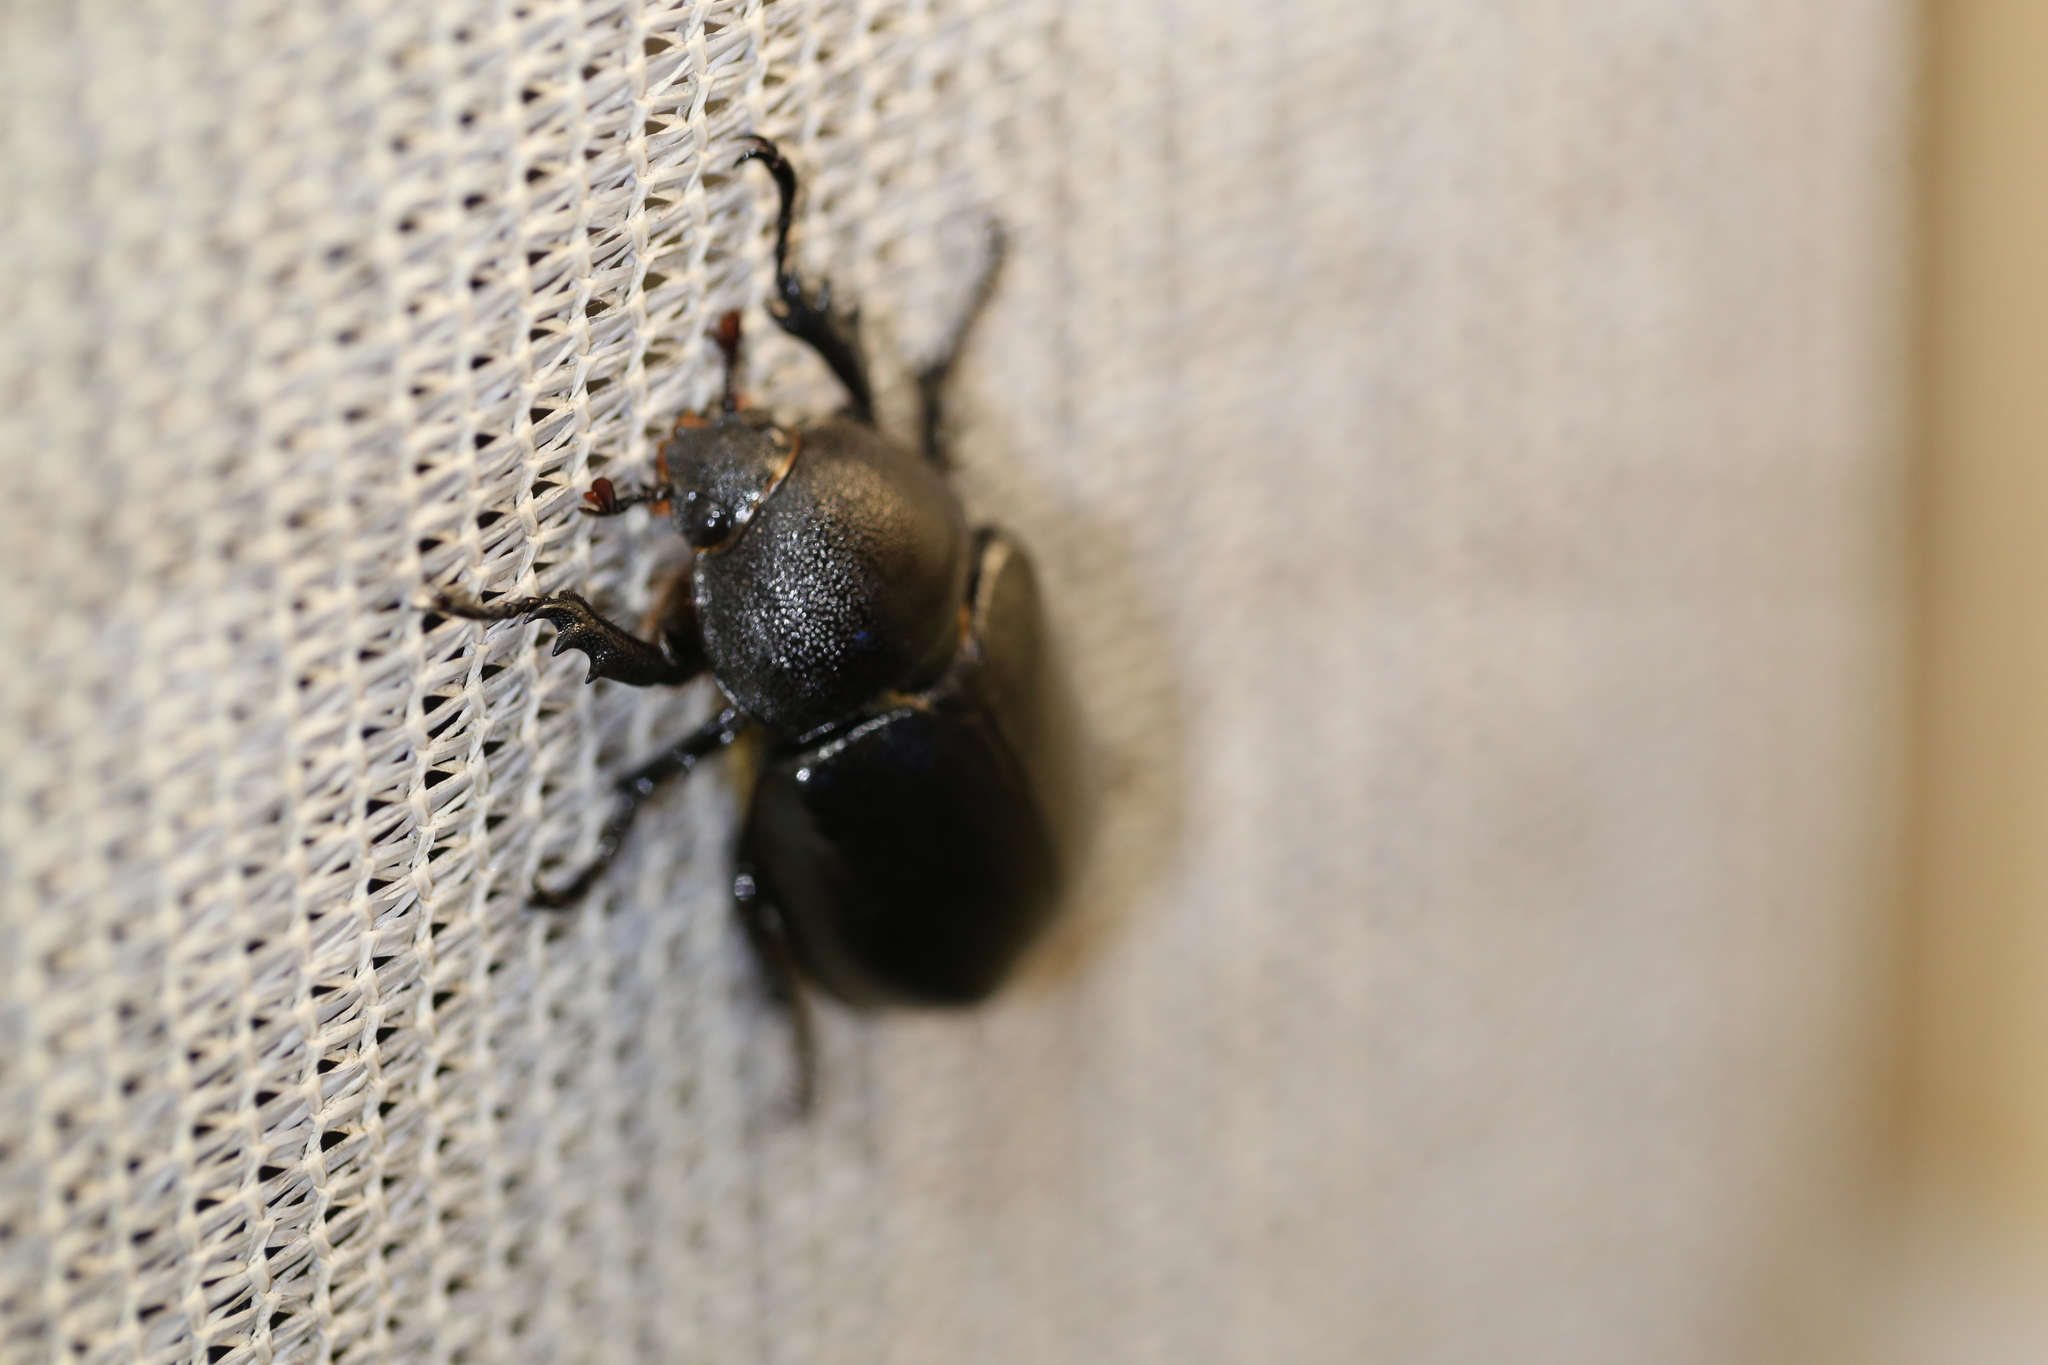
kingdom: Animalia
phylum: Arthropoda
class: Insecta
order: Coleoptera
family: Scarabaeidae
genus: Xylotrupes
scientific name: Xylotrupes australicus
